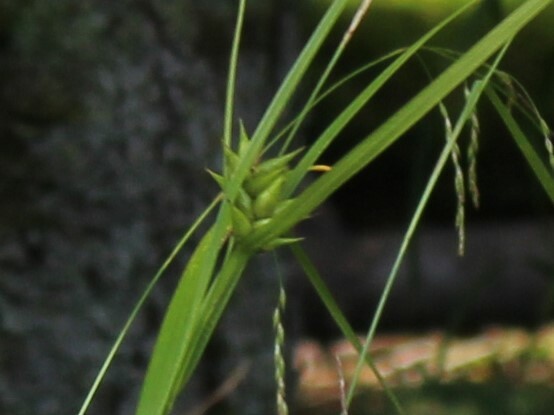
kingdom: Plantae
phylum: Tracheophyta
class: Liliopsida
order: Poales
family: Cyperaceae
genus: Carex
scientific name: Carex intumescens
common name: Greater bladder sedge
